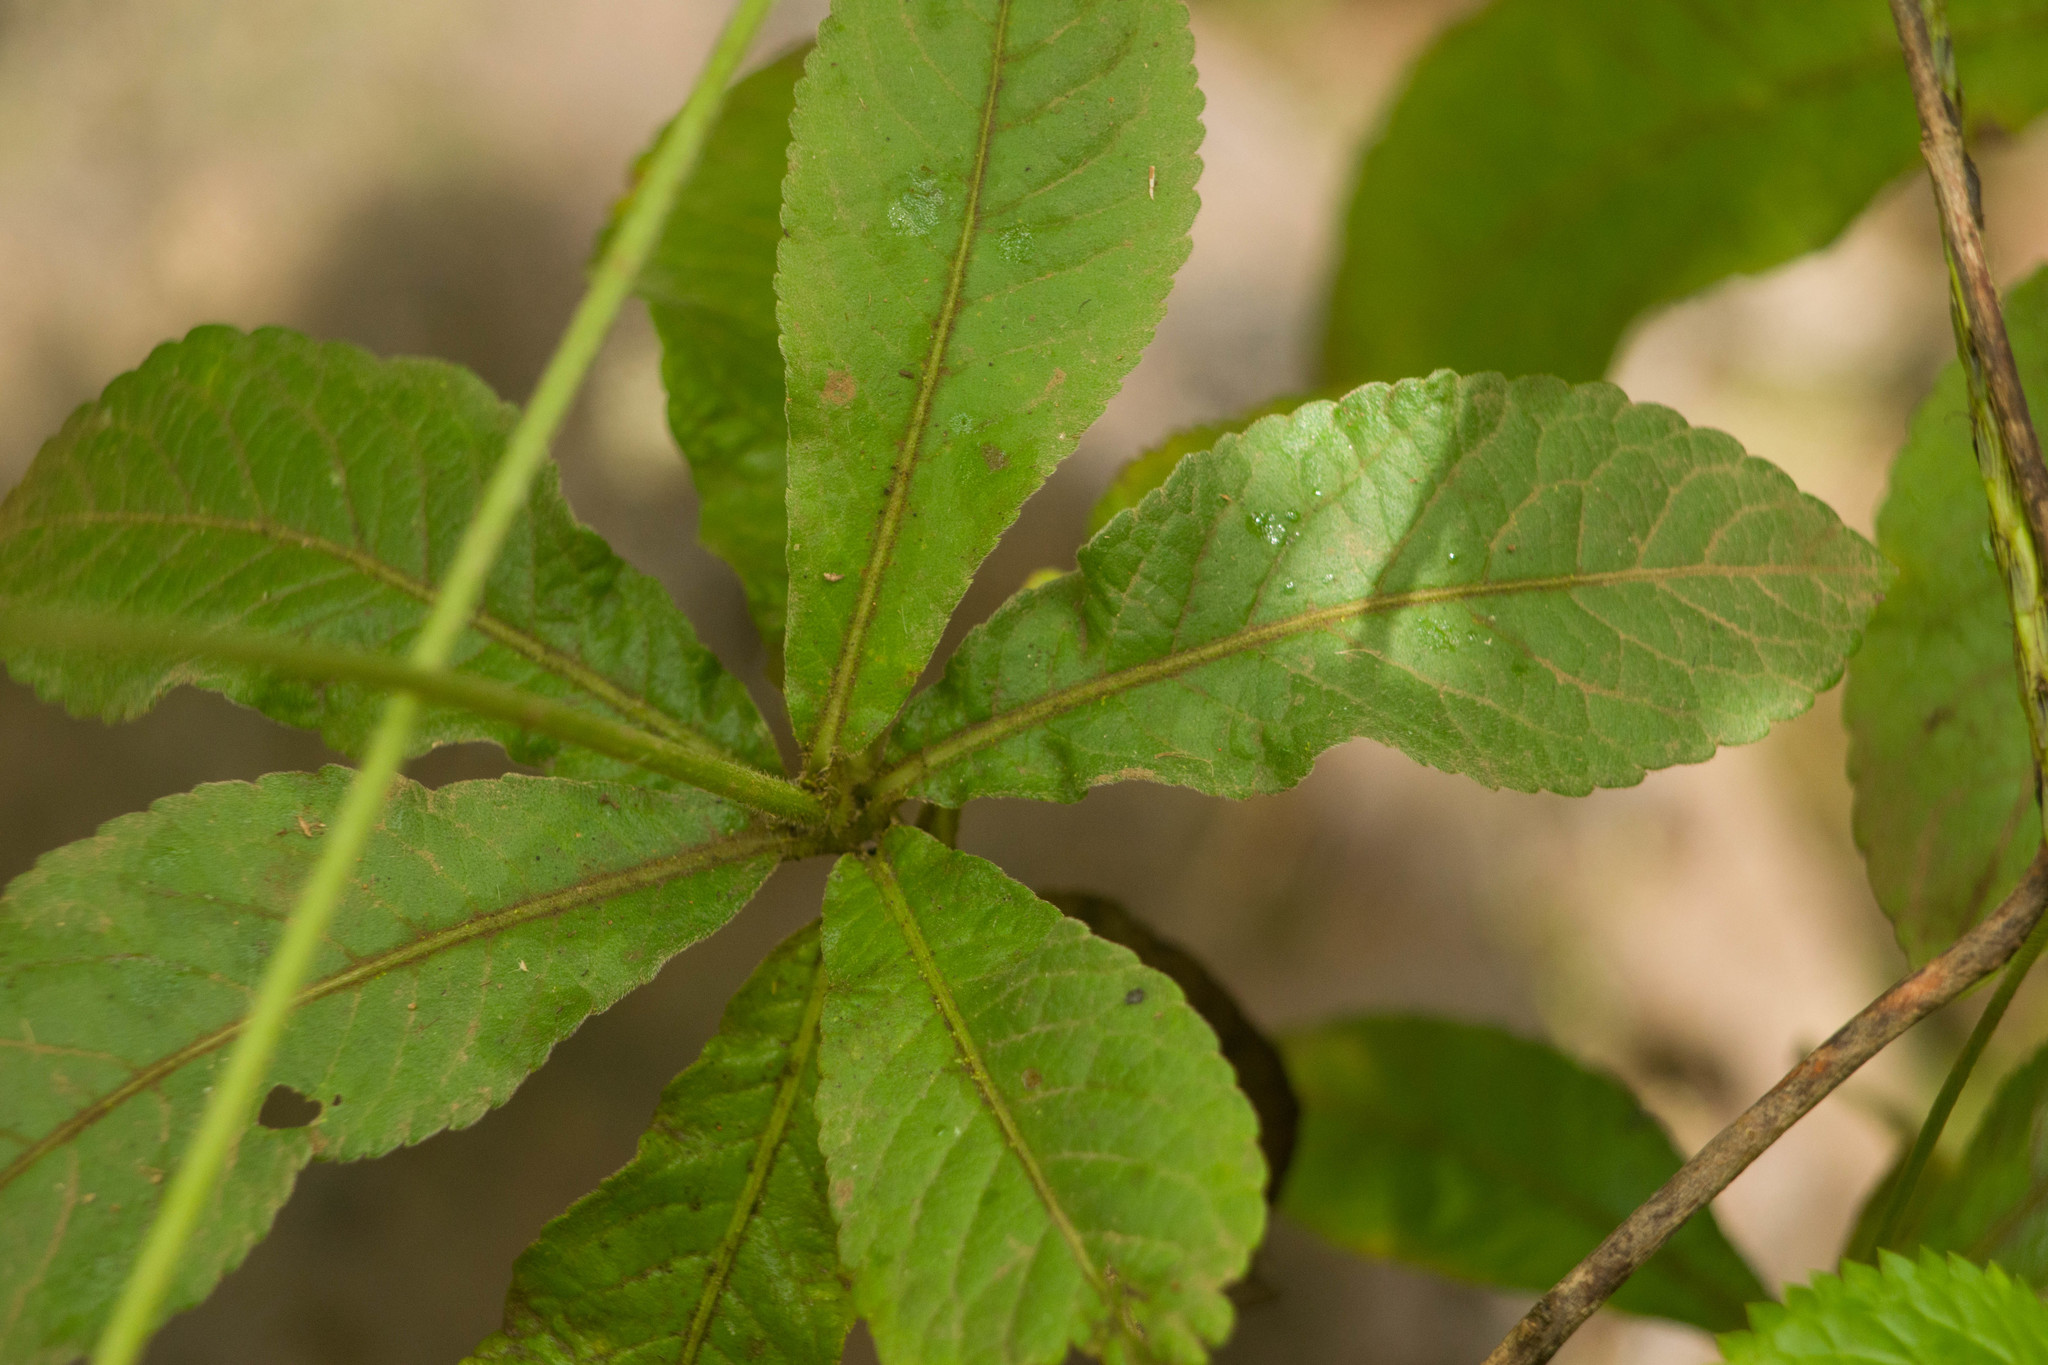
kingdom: Plantae
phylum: Tracheophyta
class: Magnoliopsida
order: Asterales
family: Asteraceae
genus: Elephantopus
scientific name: Elephantopus mollis
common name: Soft elephantsfoot
